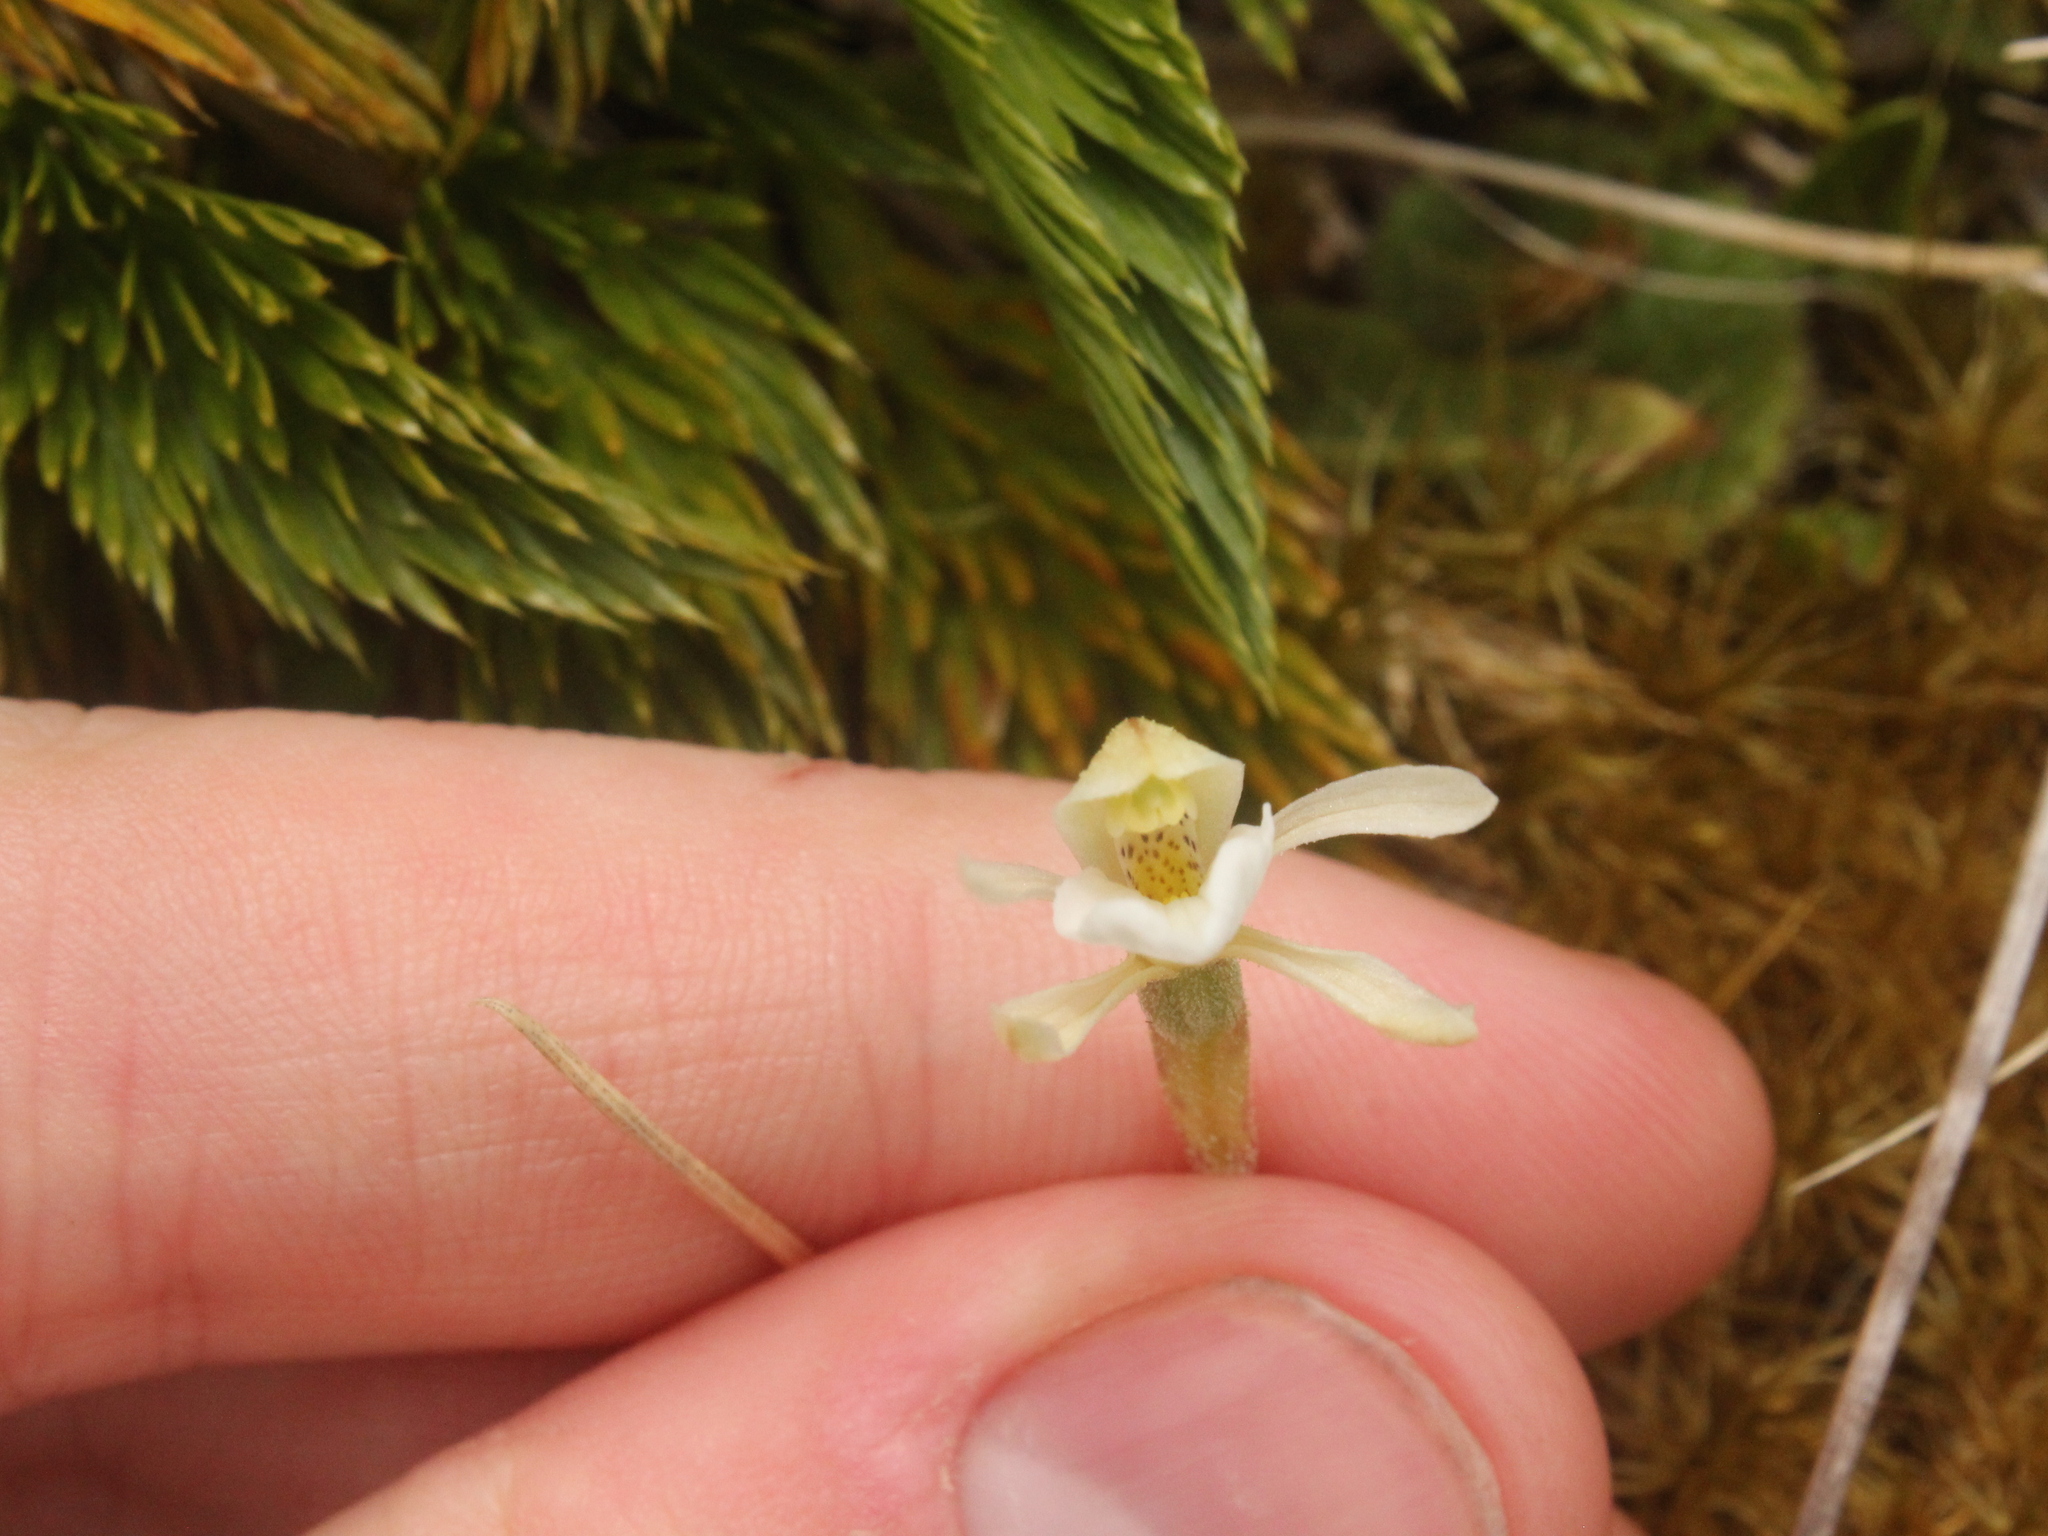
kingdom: Plantae
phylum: Tracheophyta
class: Liliopsida
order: Asparagales
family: Orchidaceae
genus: Aporostylis
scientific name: Aporostylis bifolia
